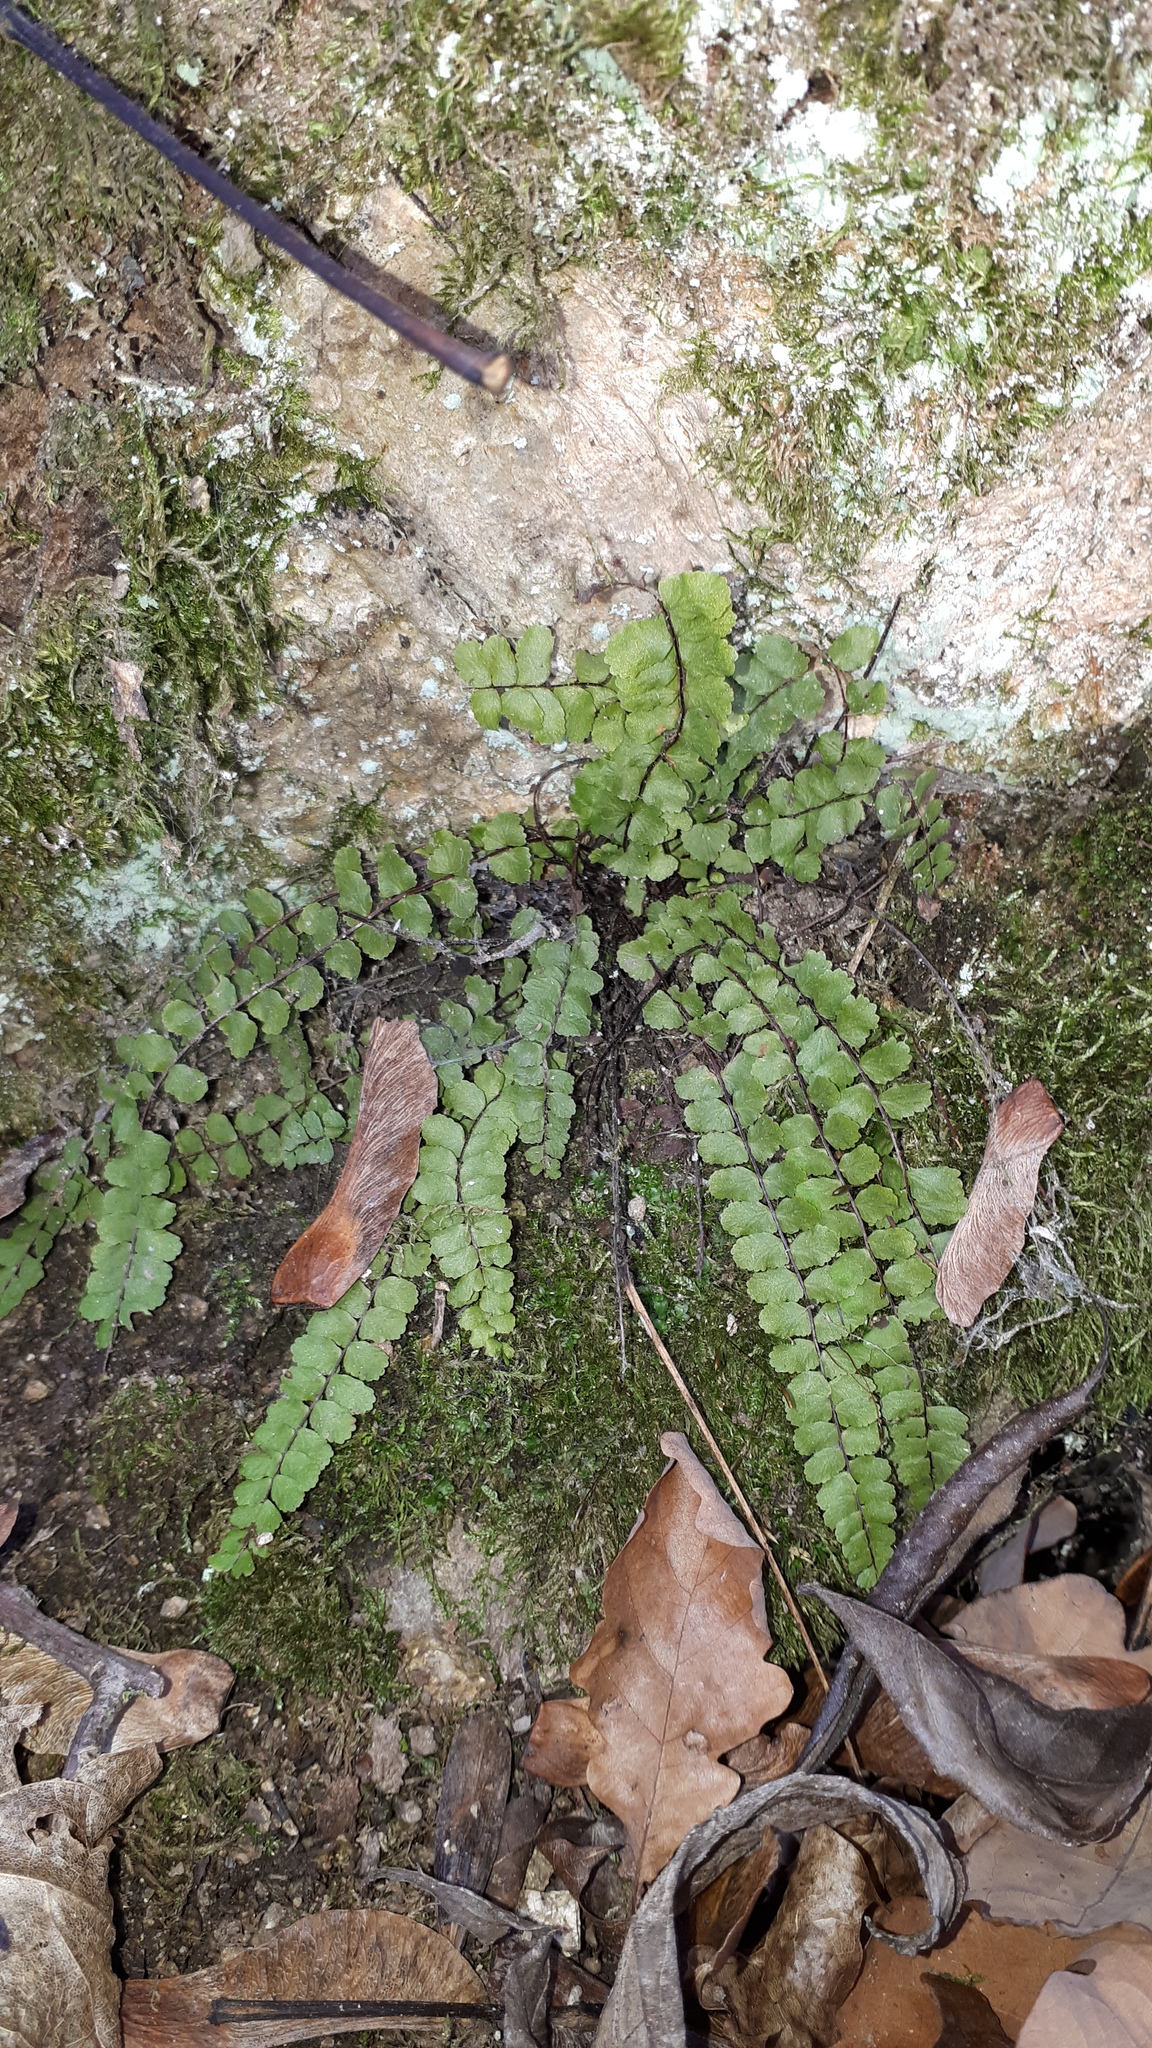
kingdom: Plantae
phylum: Tracheophyta
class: Polypodiopsida
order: Polypodiales
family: Aspleniaceae
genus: Asplenium
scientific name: Asplenium trichomanes
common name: Maidenhair spleenwort
